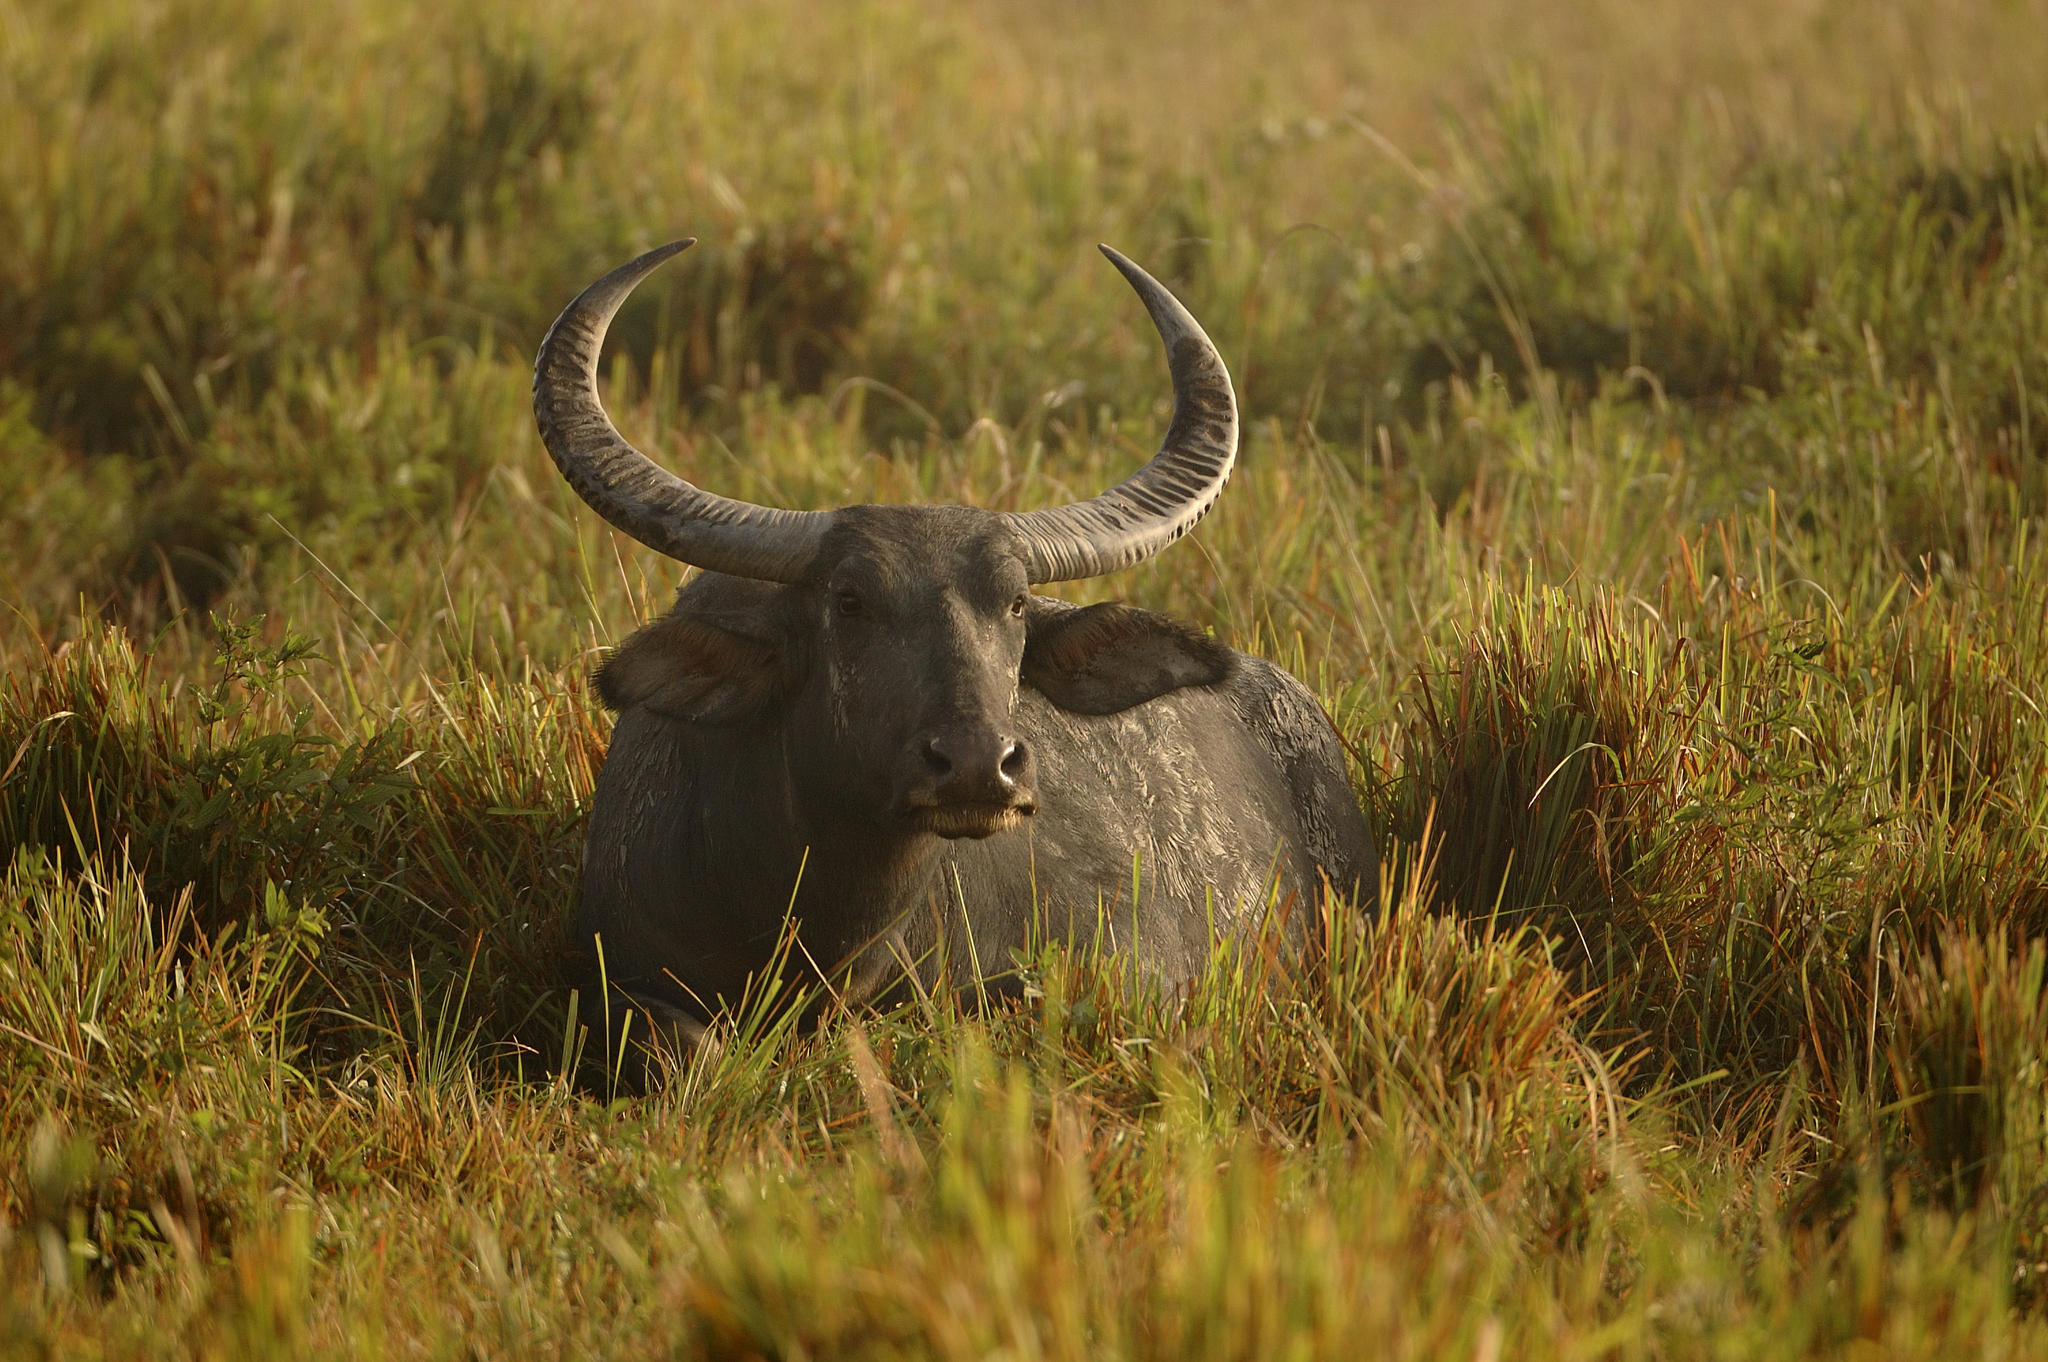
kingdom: Animalia
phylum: Chordata
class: Mammalia
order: Artiodactyla
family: Bovidae
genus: Bubalus
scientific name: Bubalus bubalis
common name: Water buffalo
